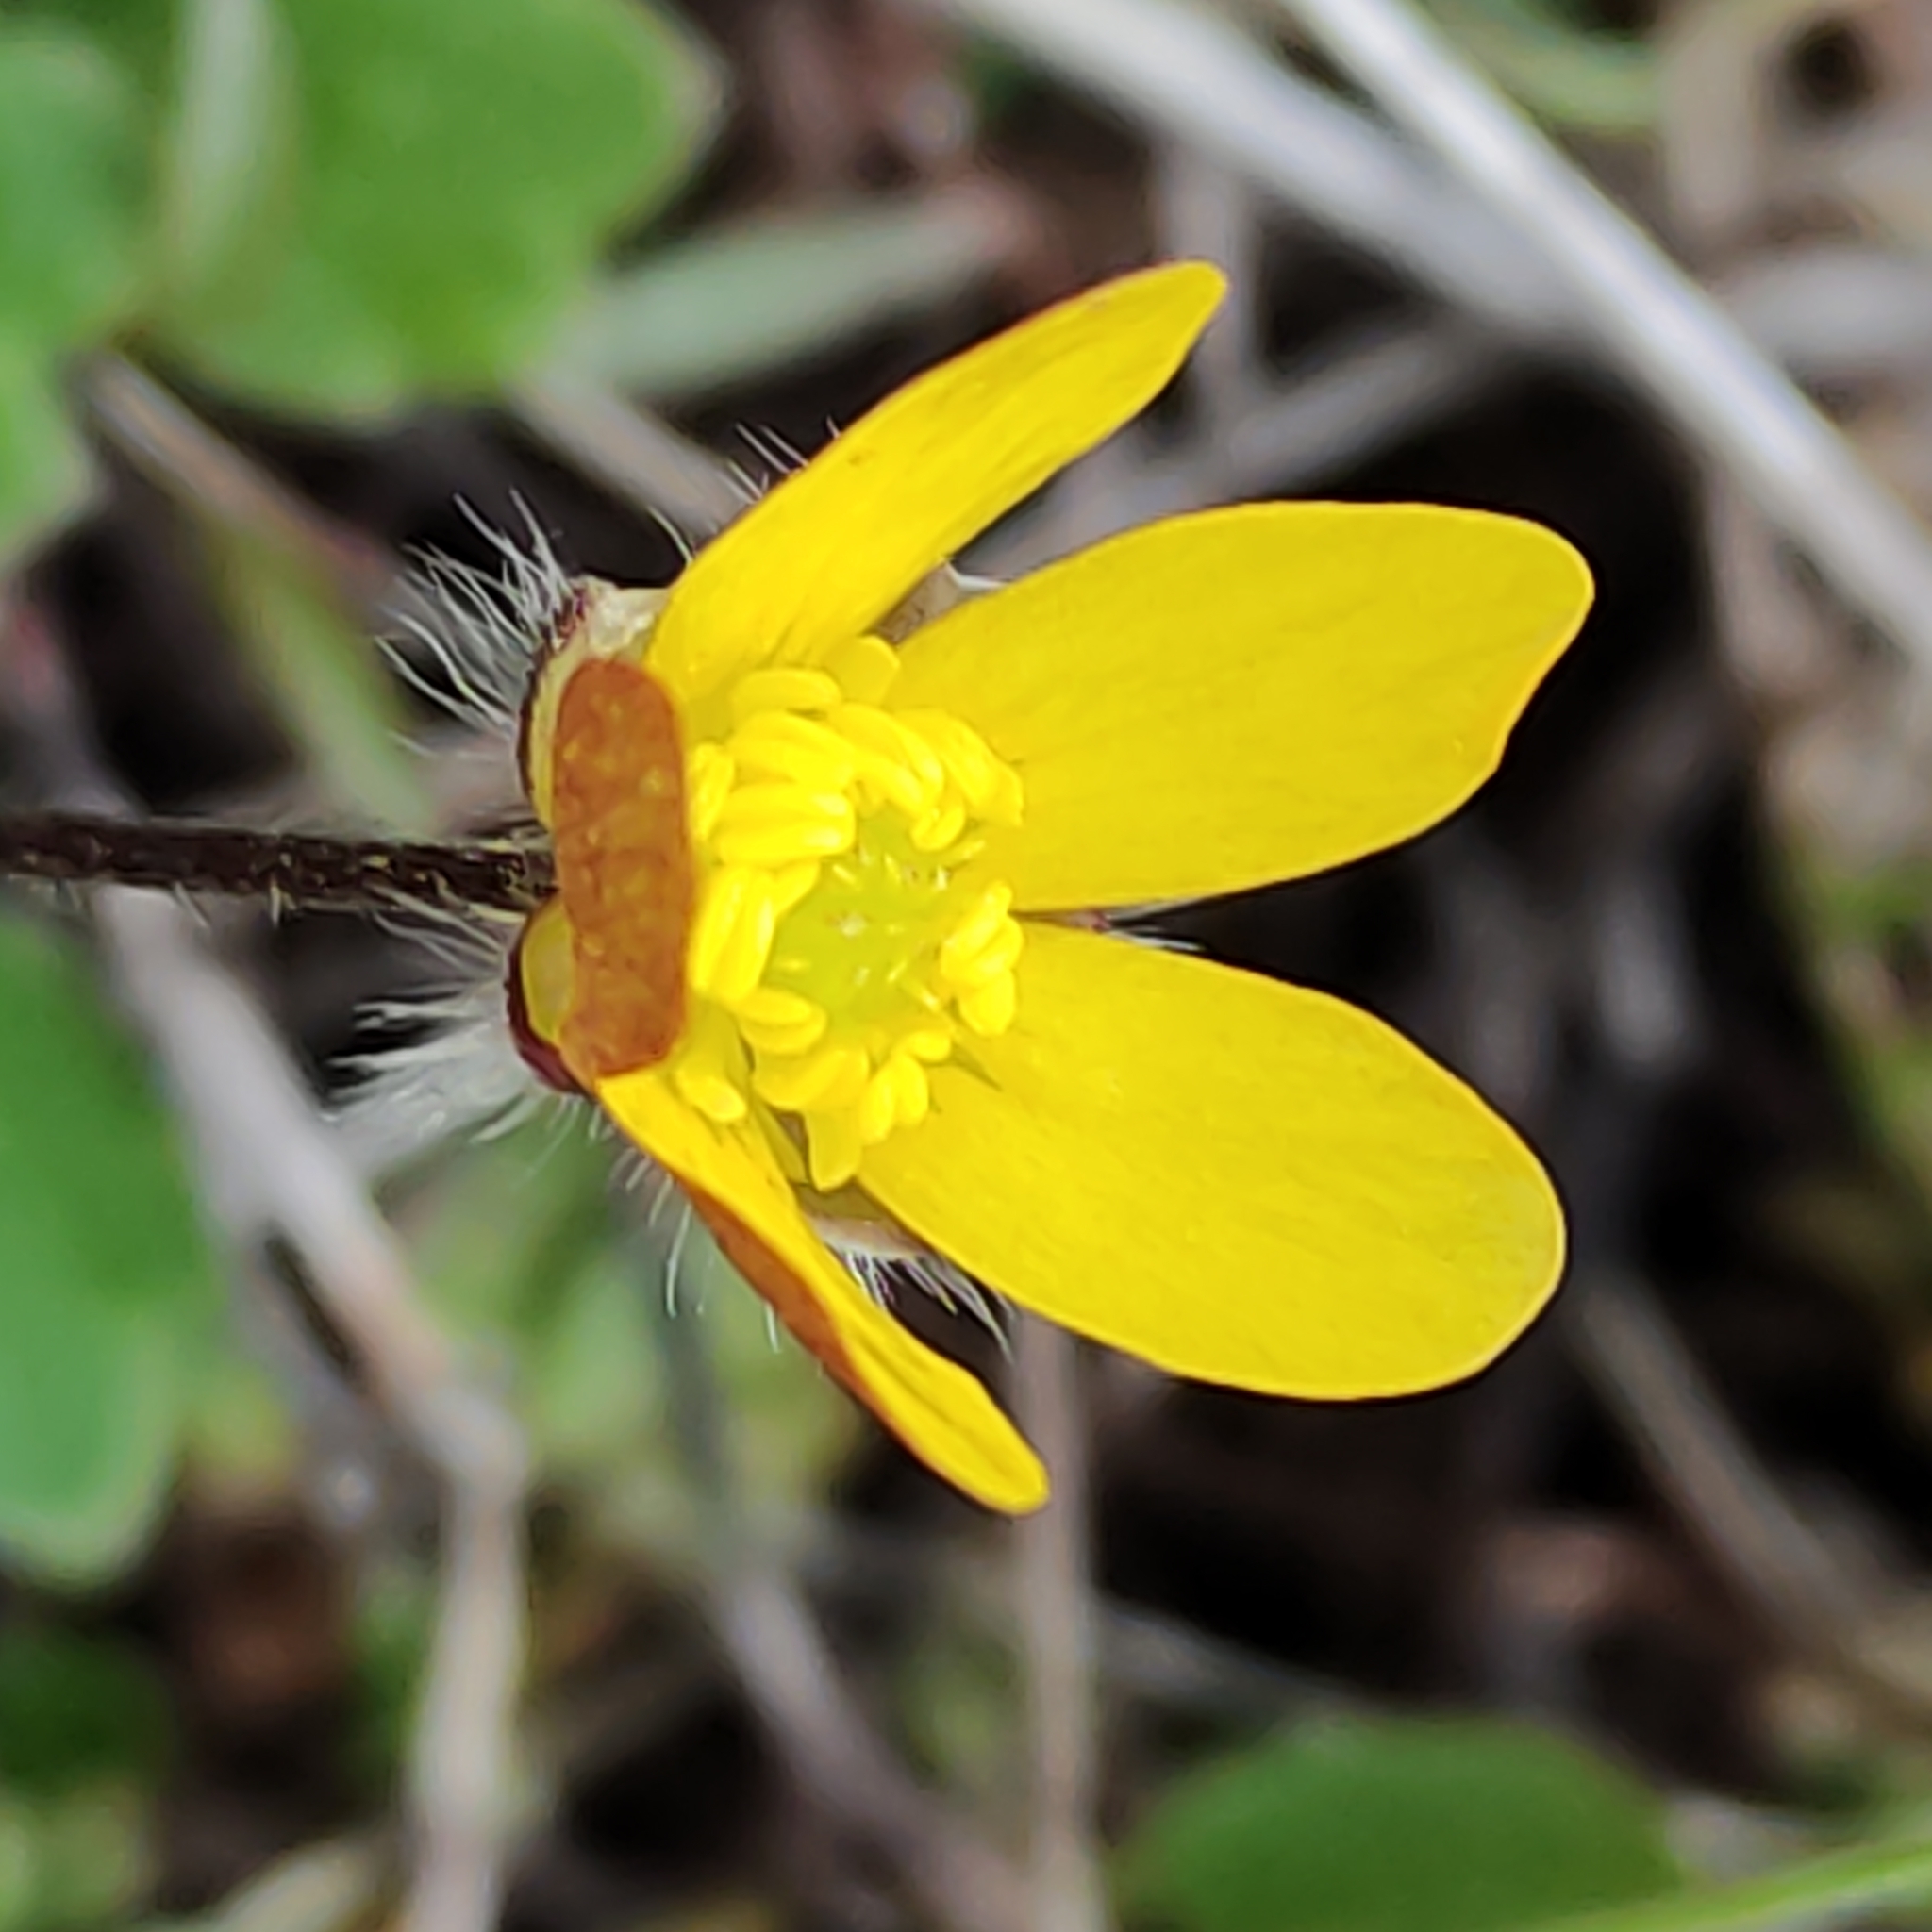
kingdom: Plantae
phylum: Tracheophyta
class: Magnoliopsida
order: Ranunculales
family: Ranunculaceae
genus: Ranunculus
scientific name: Ranunculus multiscapus
